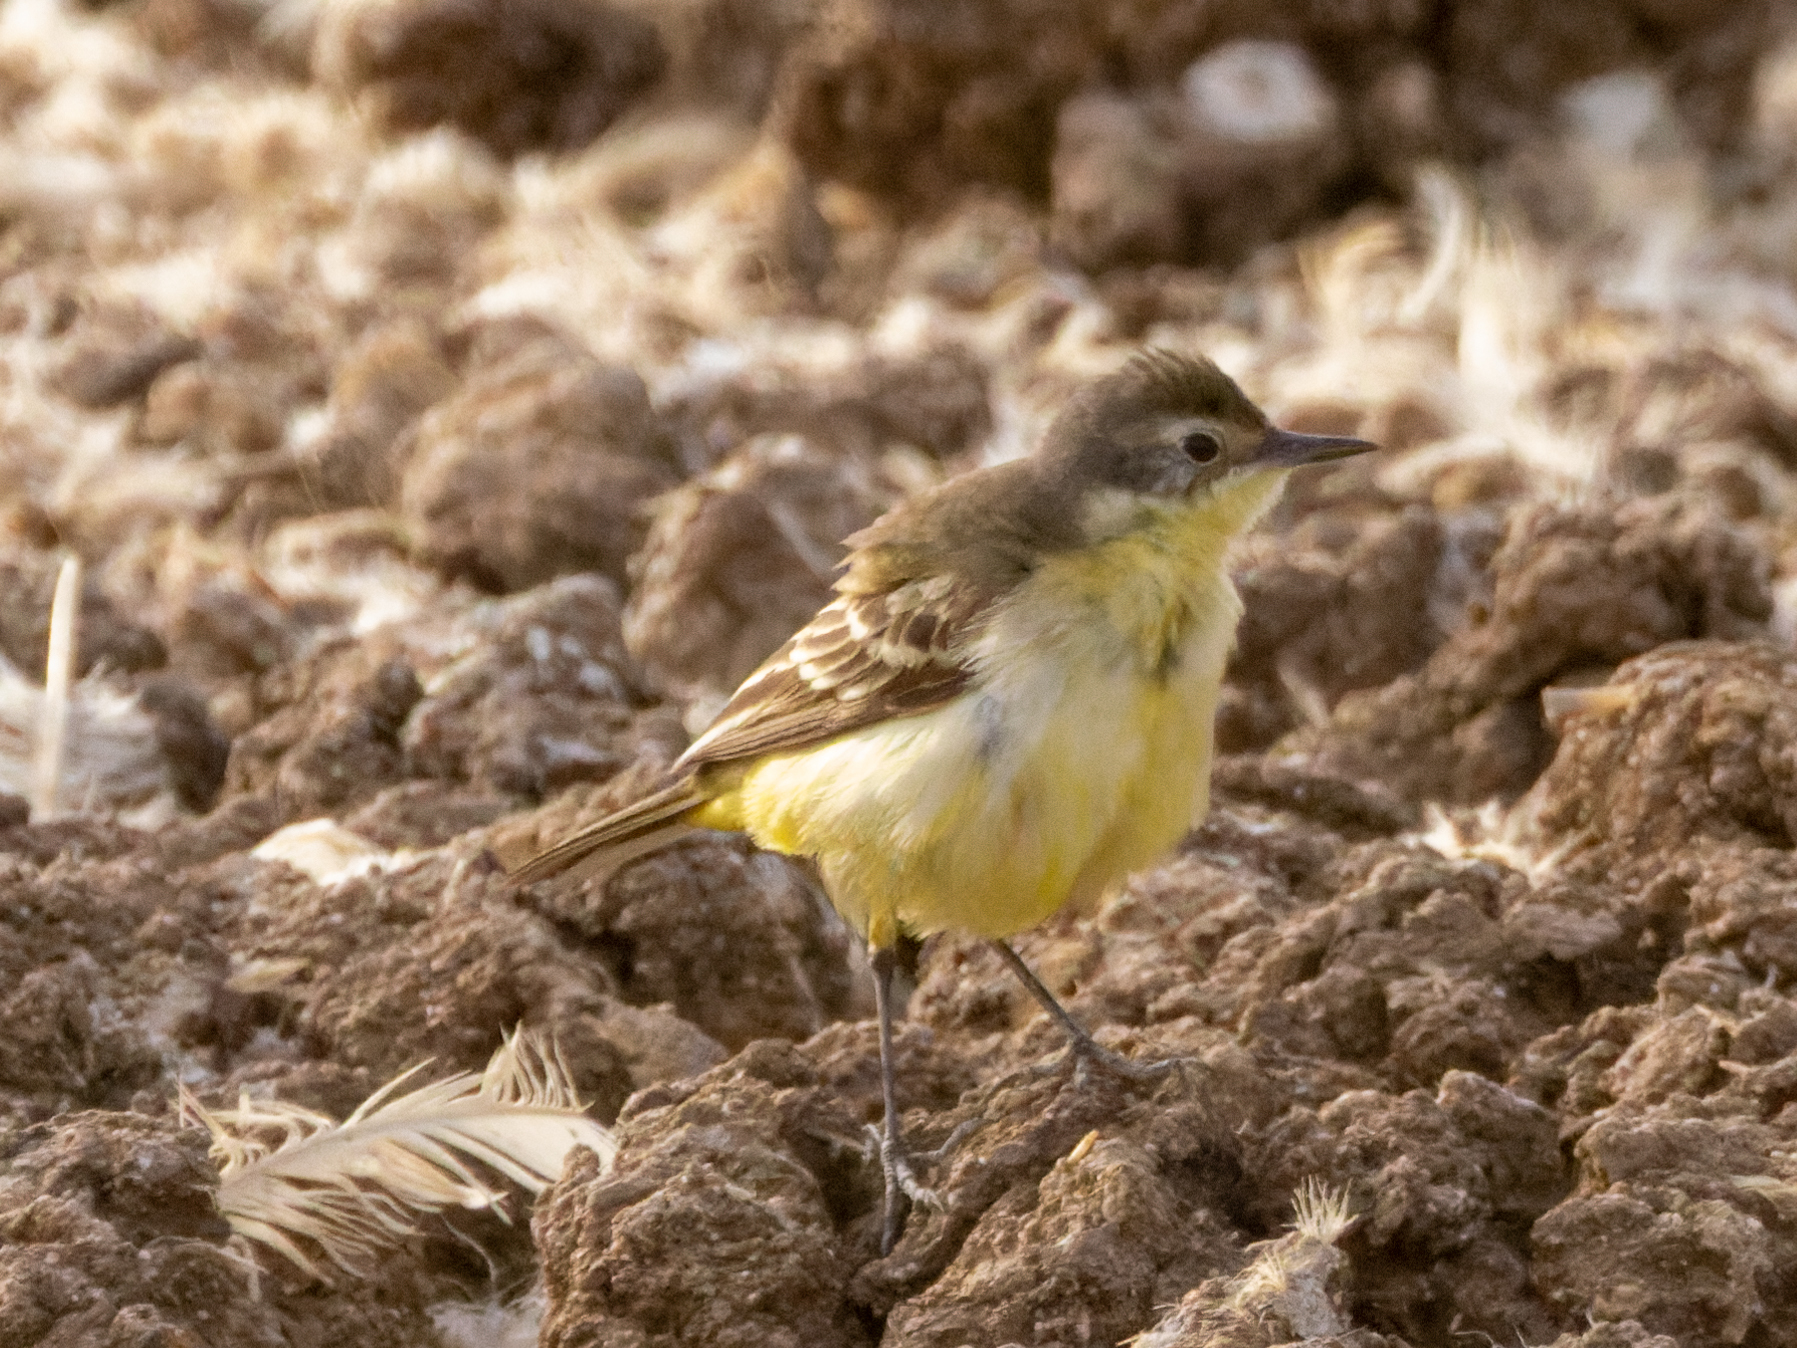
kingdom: Animalia
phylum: Chordata
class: Aves
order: Passeriformes
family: Motacillidae
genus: Motacilla
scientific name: Motacilla flava
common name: Western yellow wagtail
